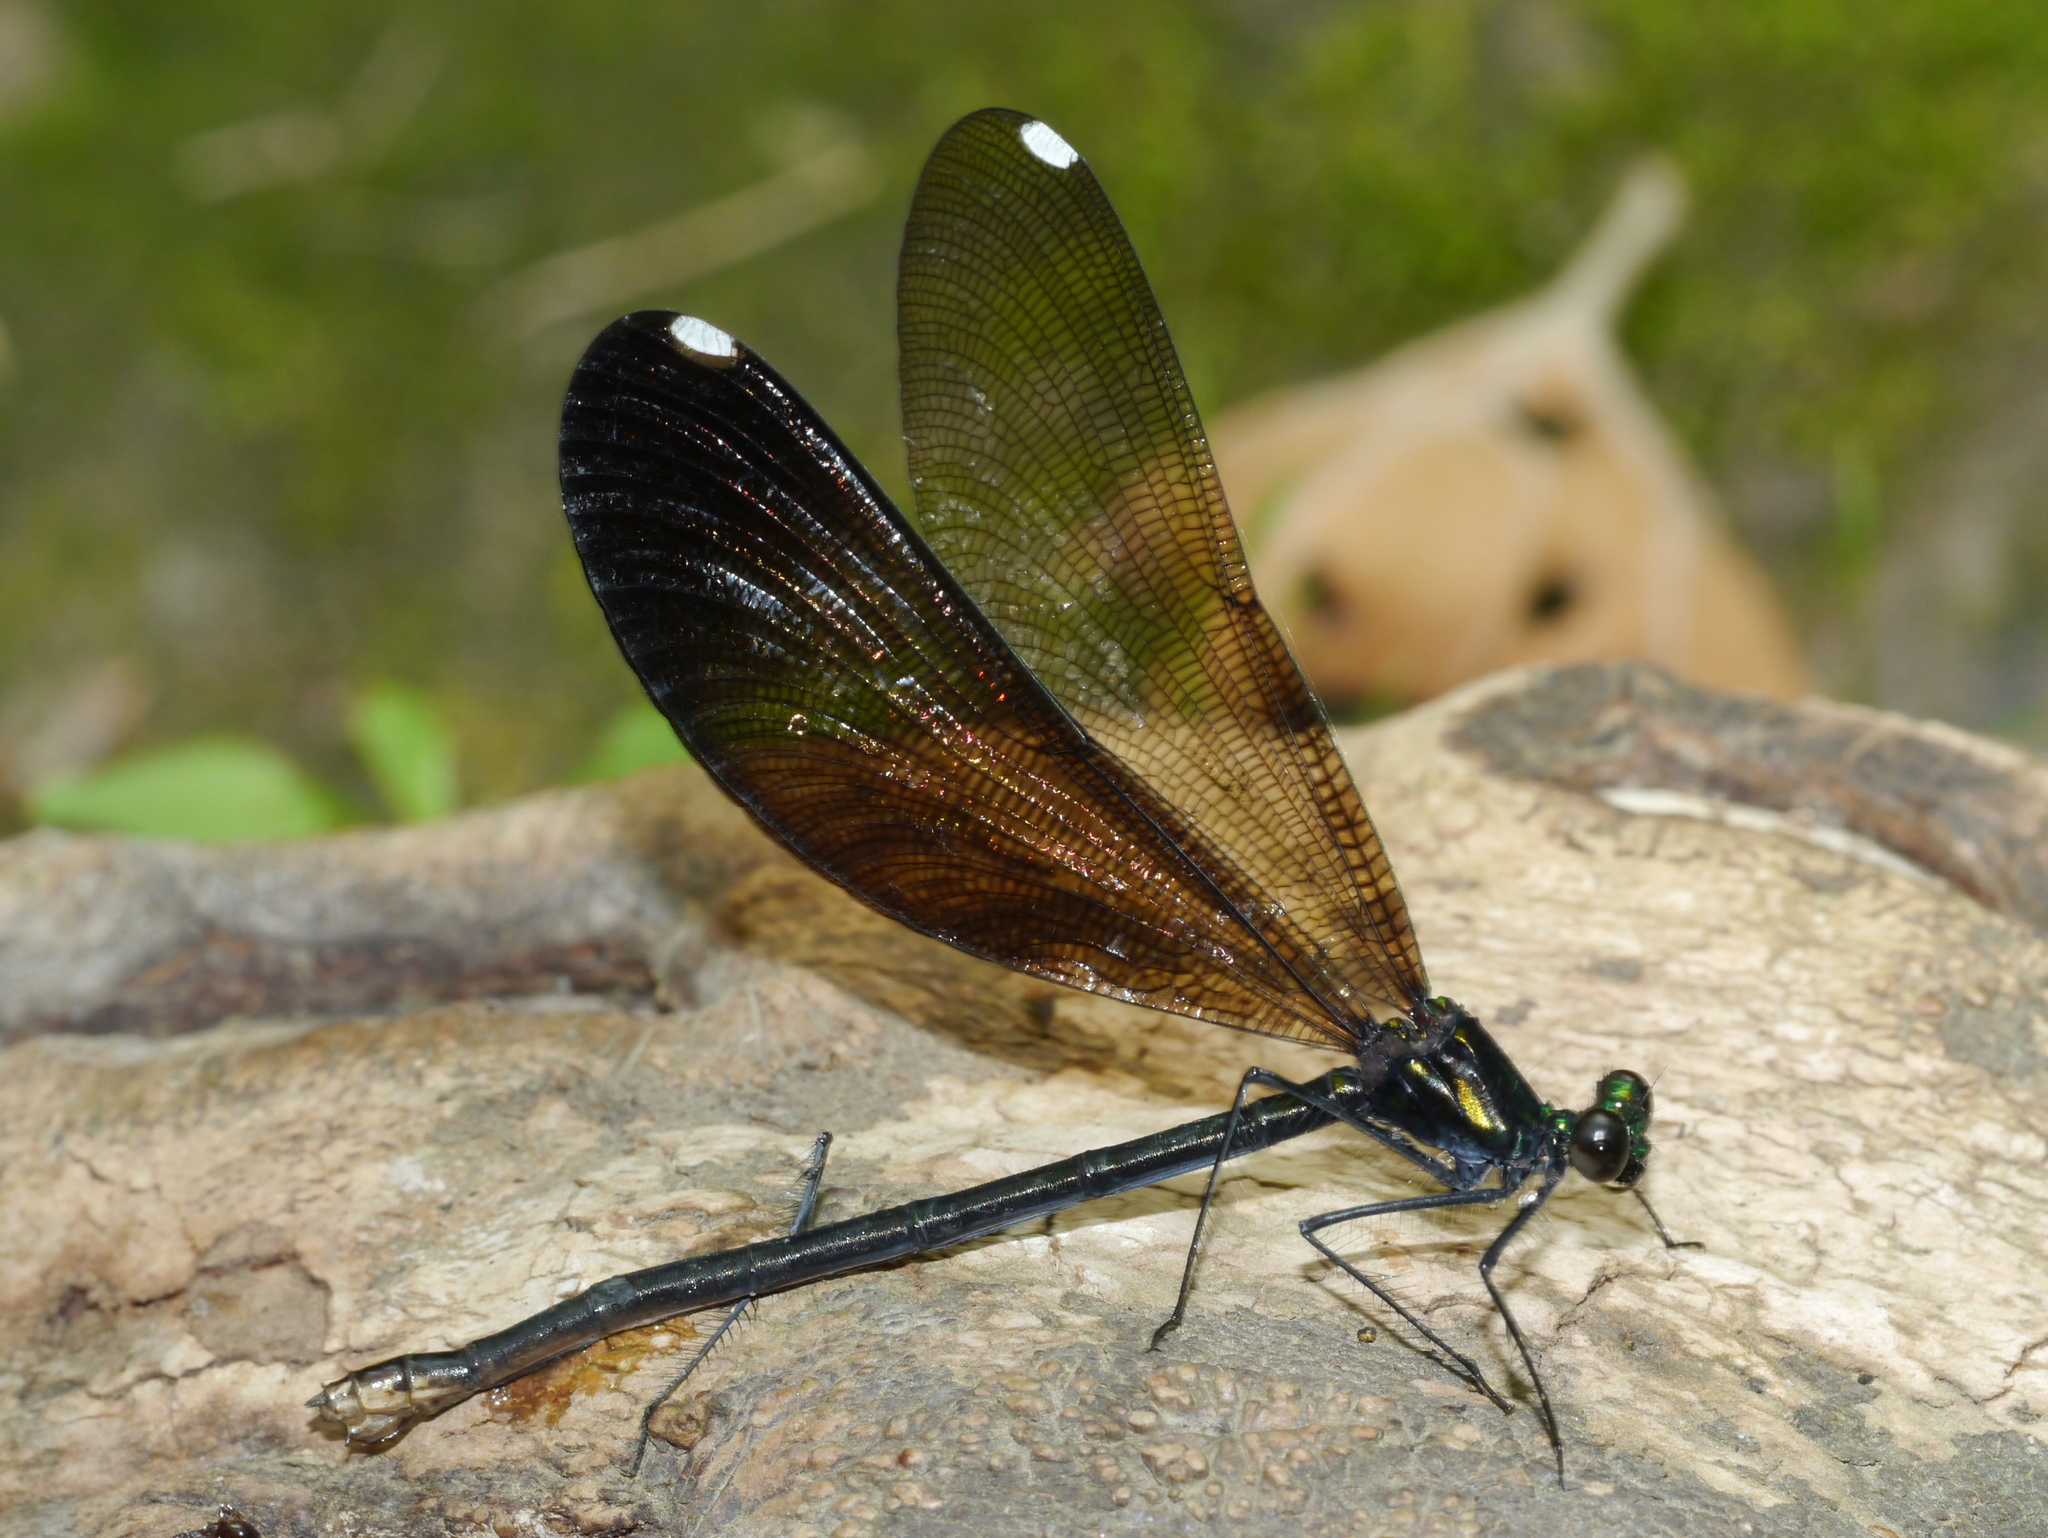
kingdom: Animalia
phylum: Arthropoda
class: Insecta
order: Odonata
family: Calopterygidae
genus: Calopteryx
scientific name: Calopteryx maculata
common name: Ebony jewelwing
